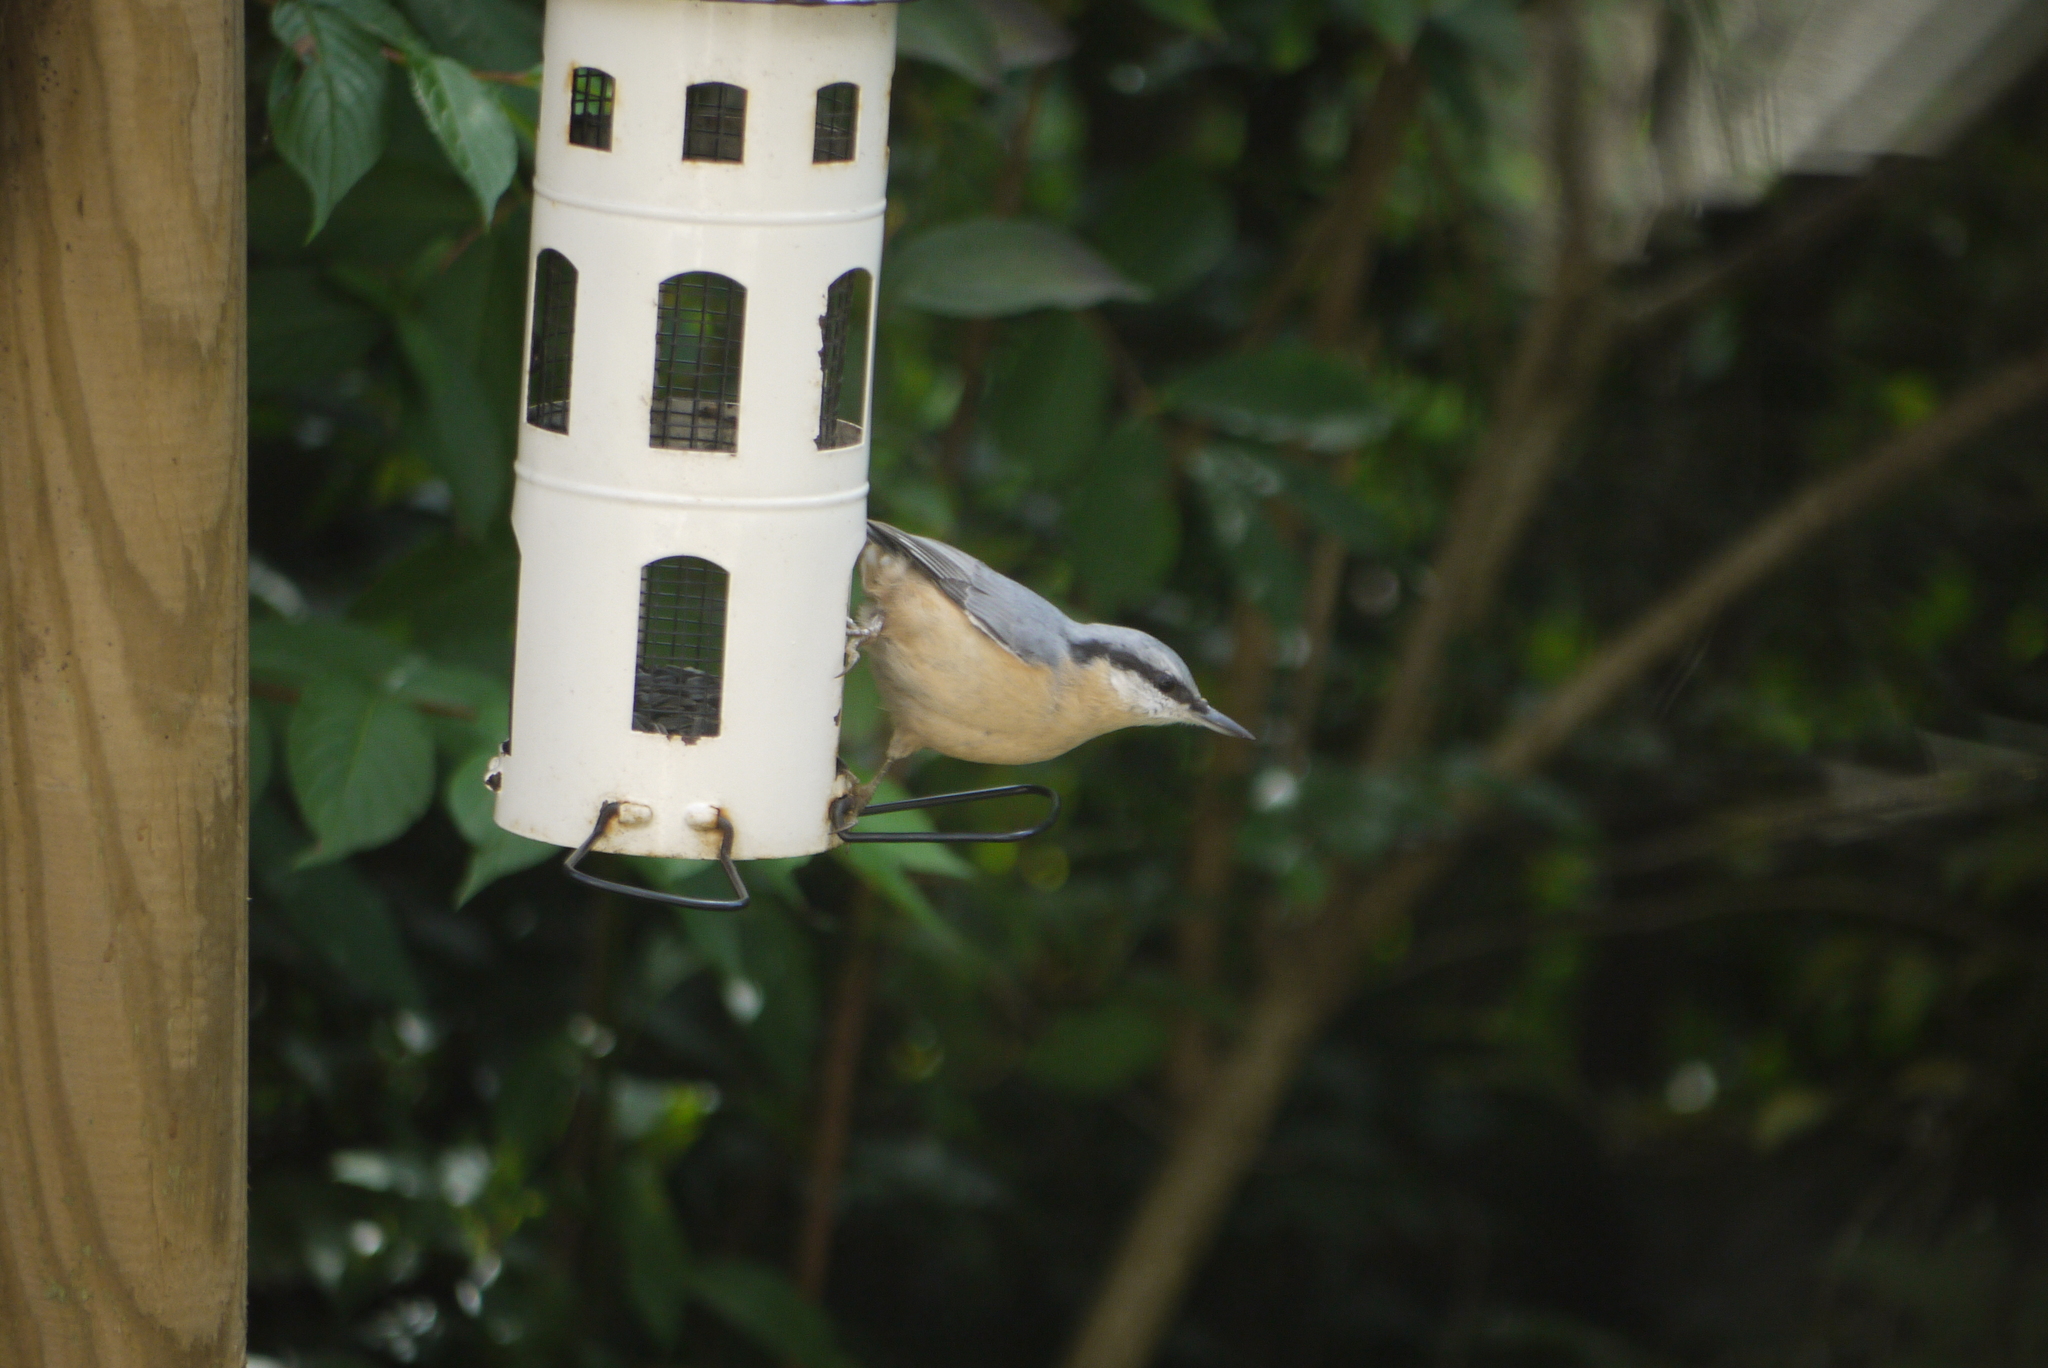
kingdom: Animalia
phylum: Chordata
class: Aves
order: Passeriformes
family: Sittidae
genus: Sitta
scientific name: Sitta europaea
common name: Eurasian nuthatch
